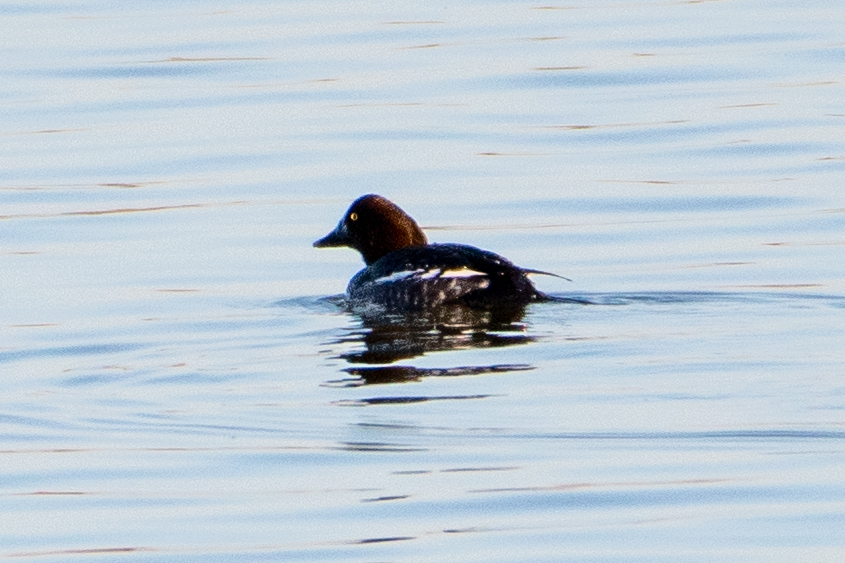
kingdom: Animalia
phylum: Chordata
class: Aves
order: Anseriformes
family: Anatidae
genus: Bucephala
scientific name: Bucephala clangula
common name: Common goldeneye
